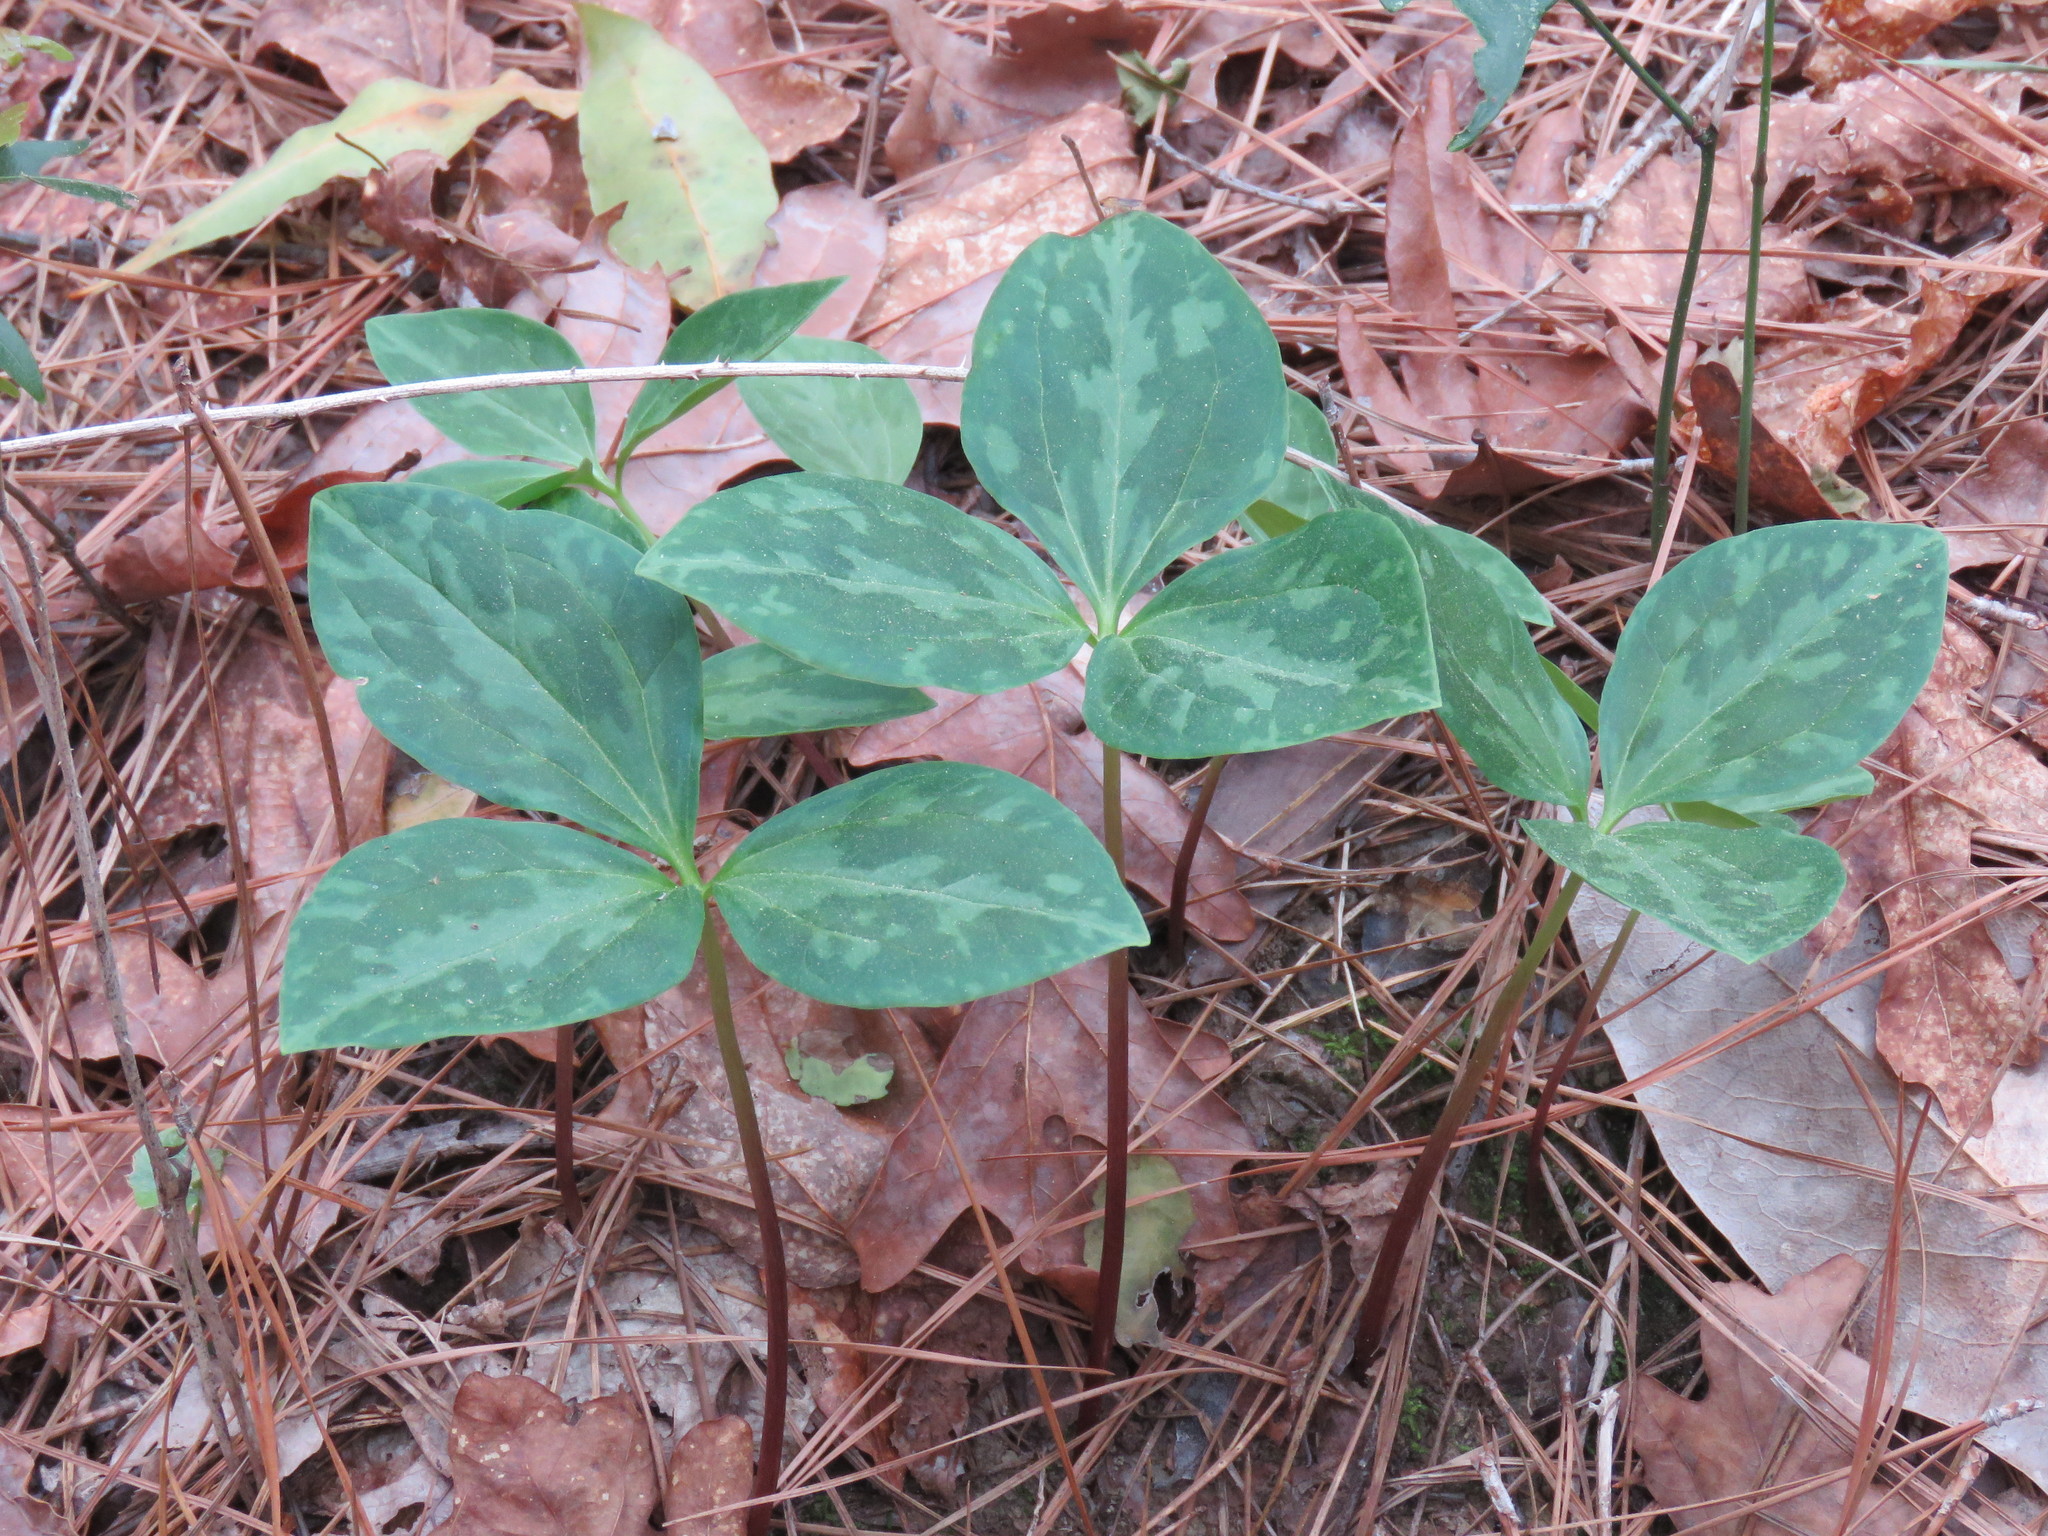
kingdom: Plantae
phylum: Tracheophyta
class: Liliopsida
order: Liliales
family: Melanthiaceae
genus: Trillium
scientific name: Trillium gracile
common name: Graceful trillium
